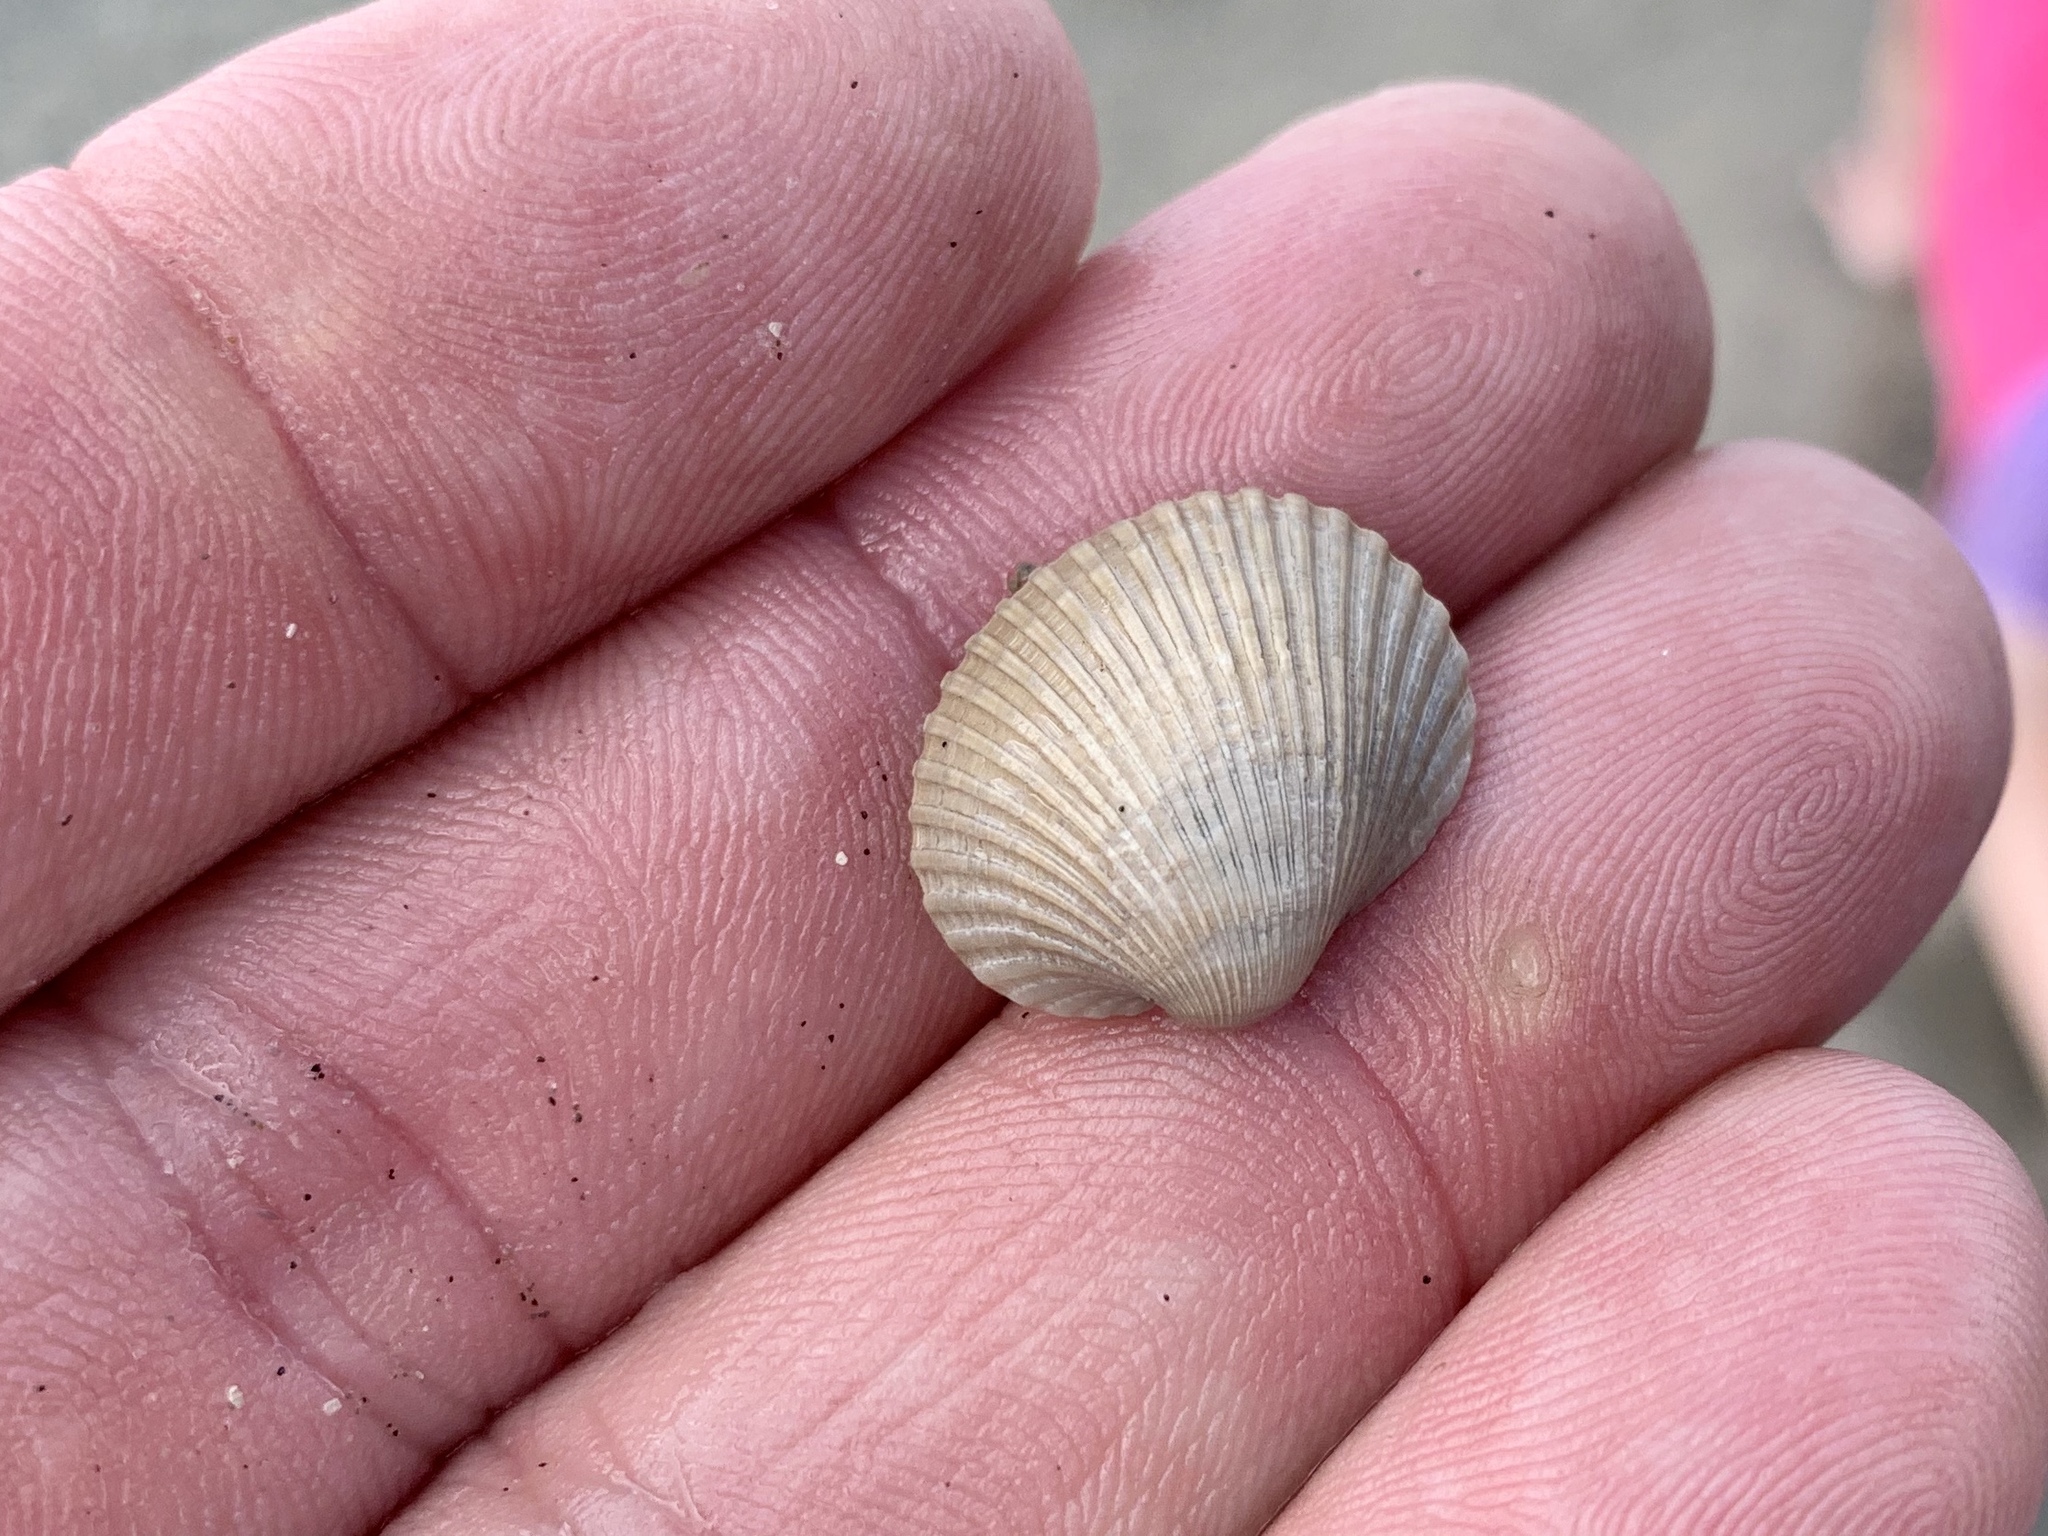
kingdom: Animalia
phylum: Mollusca
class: Bivalvia
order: Arcida
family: Arcidae
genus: Lunarca
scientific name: Lunarca ovalis
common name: Blood ark
